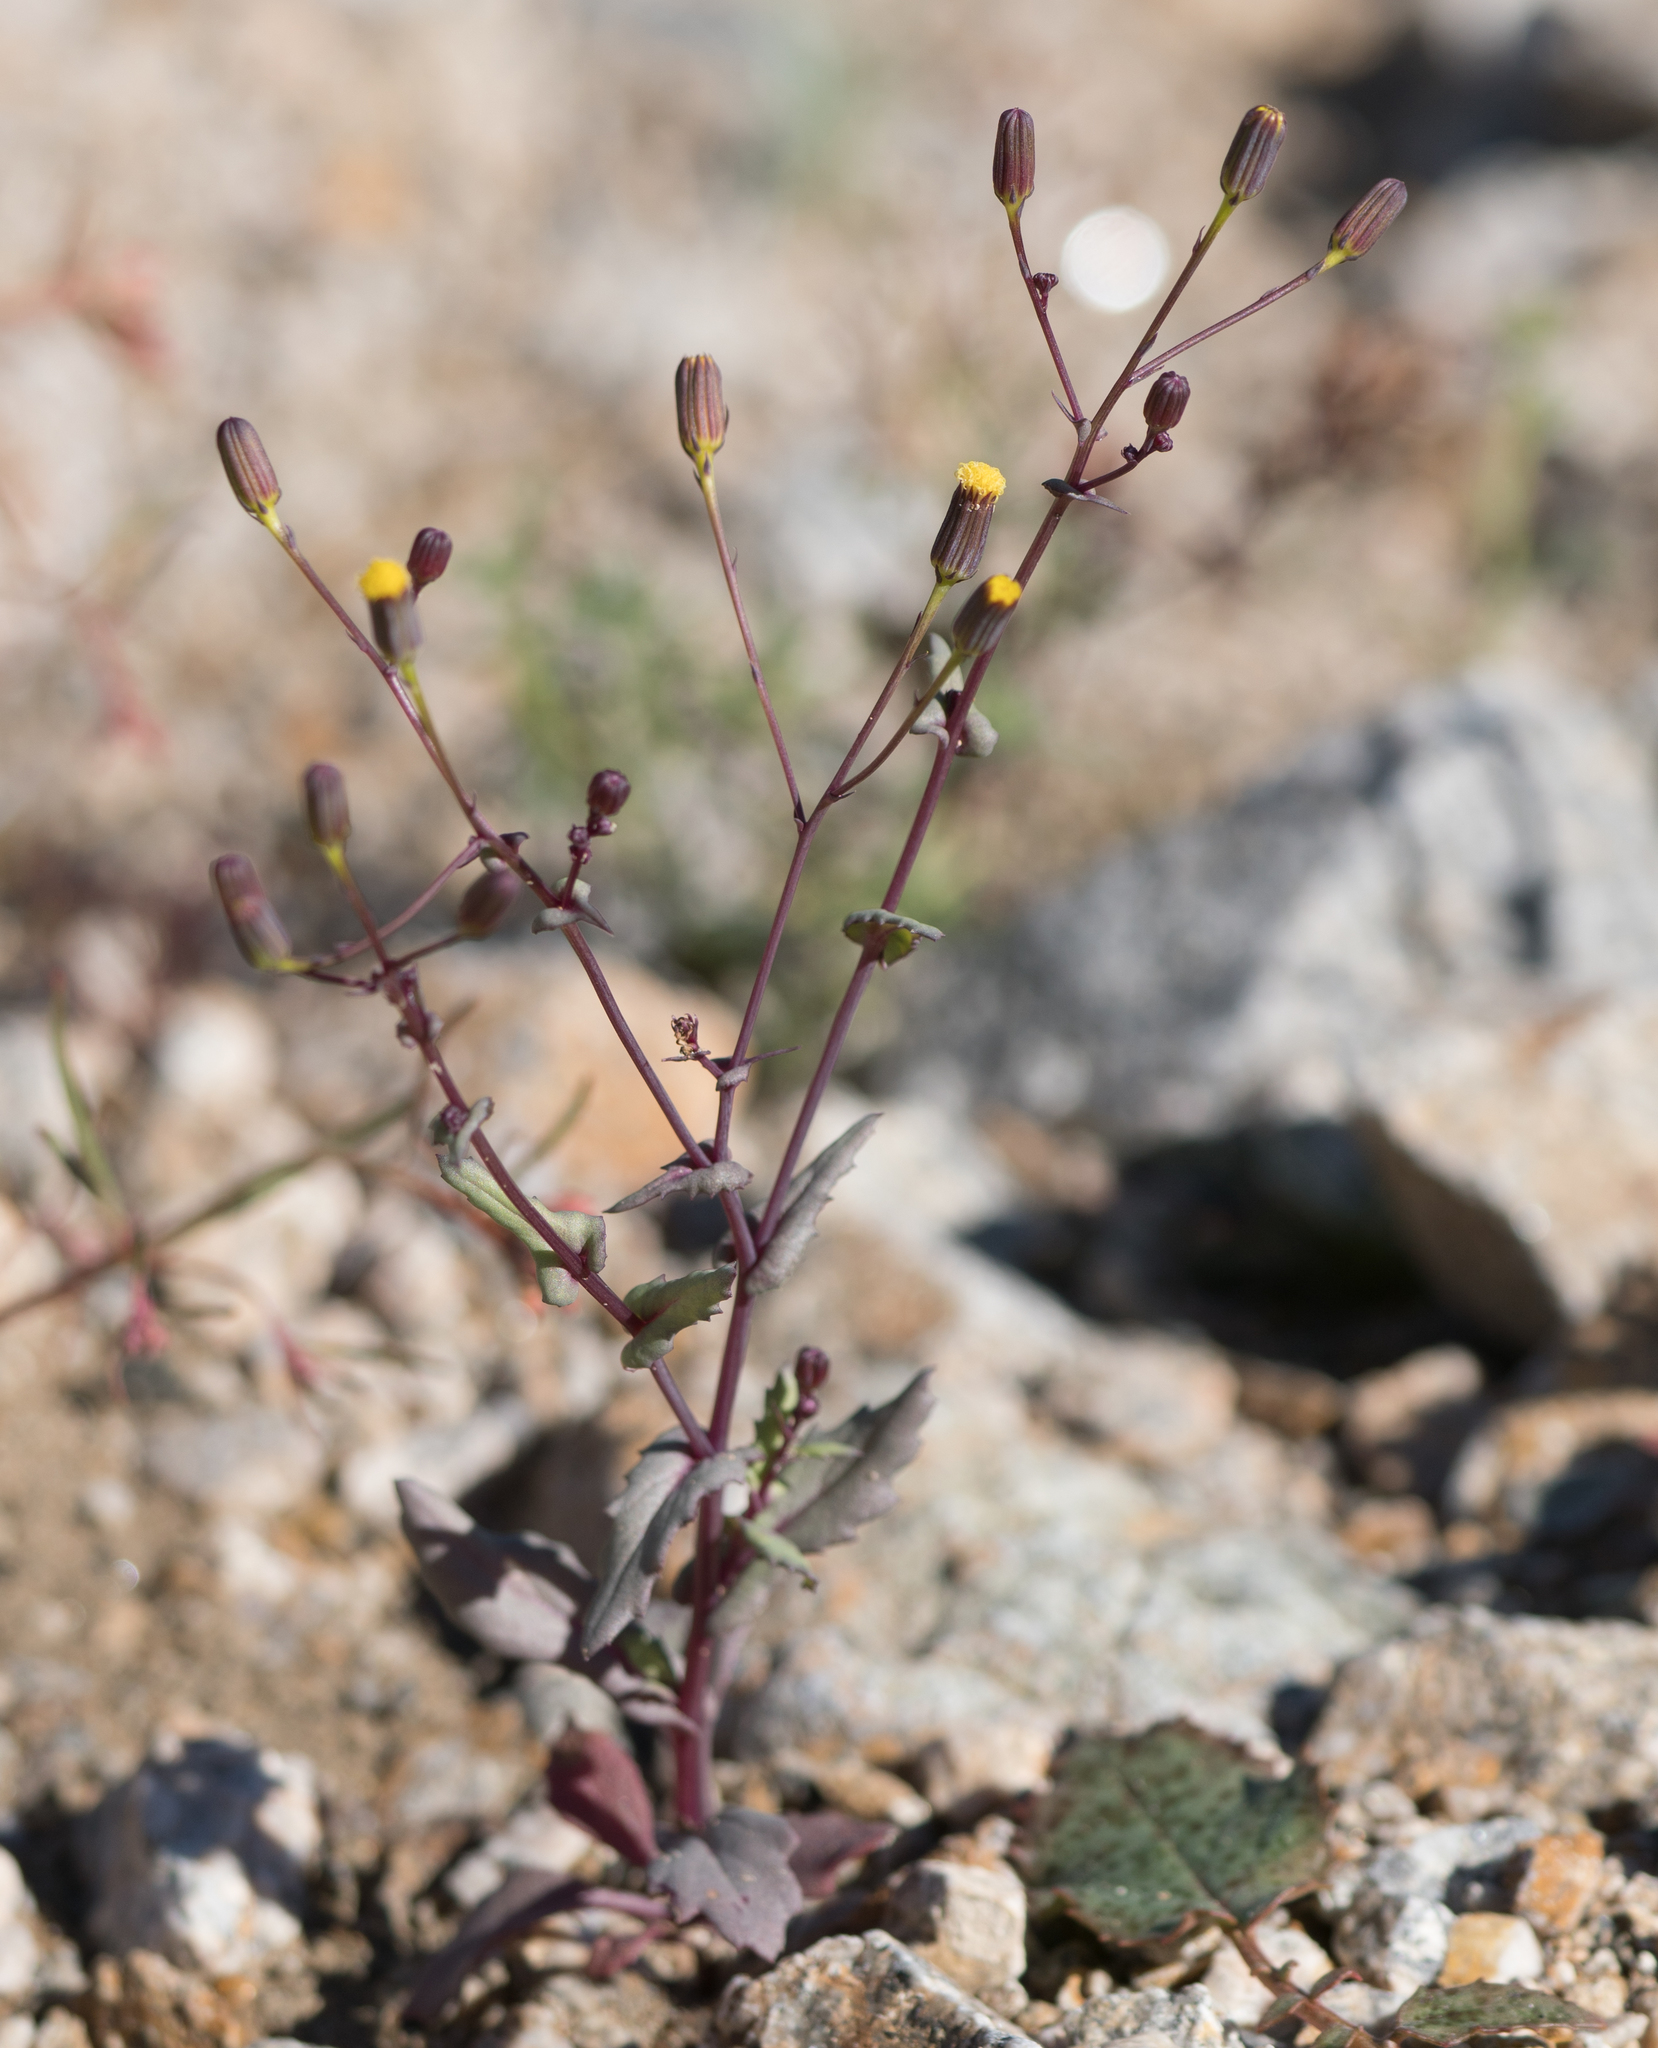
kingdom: Plantae
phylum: Tracheophyta
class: Magnoliopsida
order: Asterales
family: Asteraceae
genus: Senecio
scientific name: Senecio mohavensis
